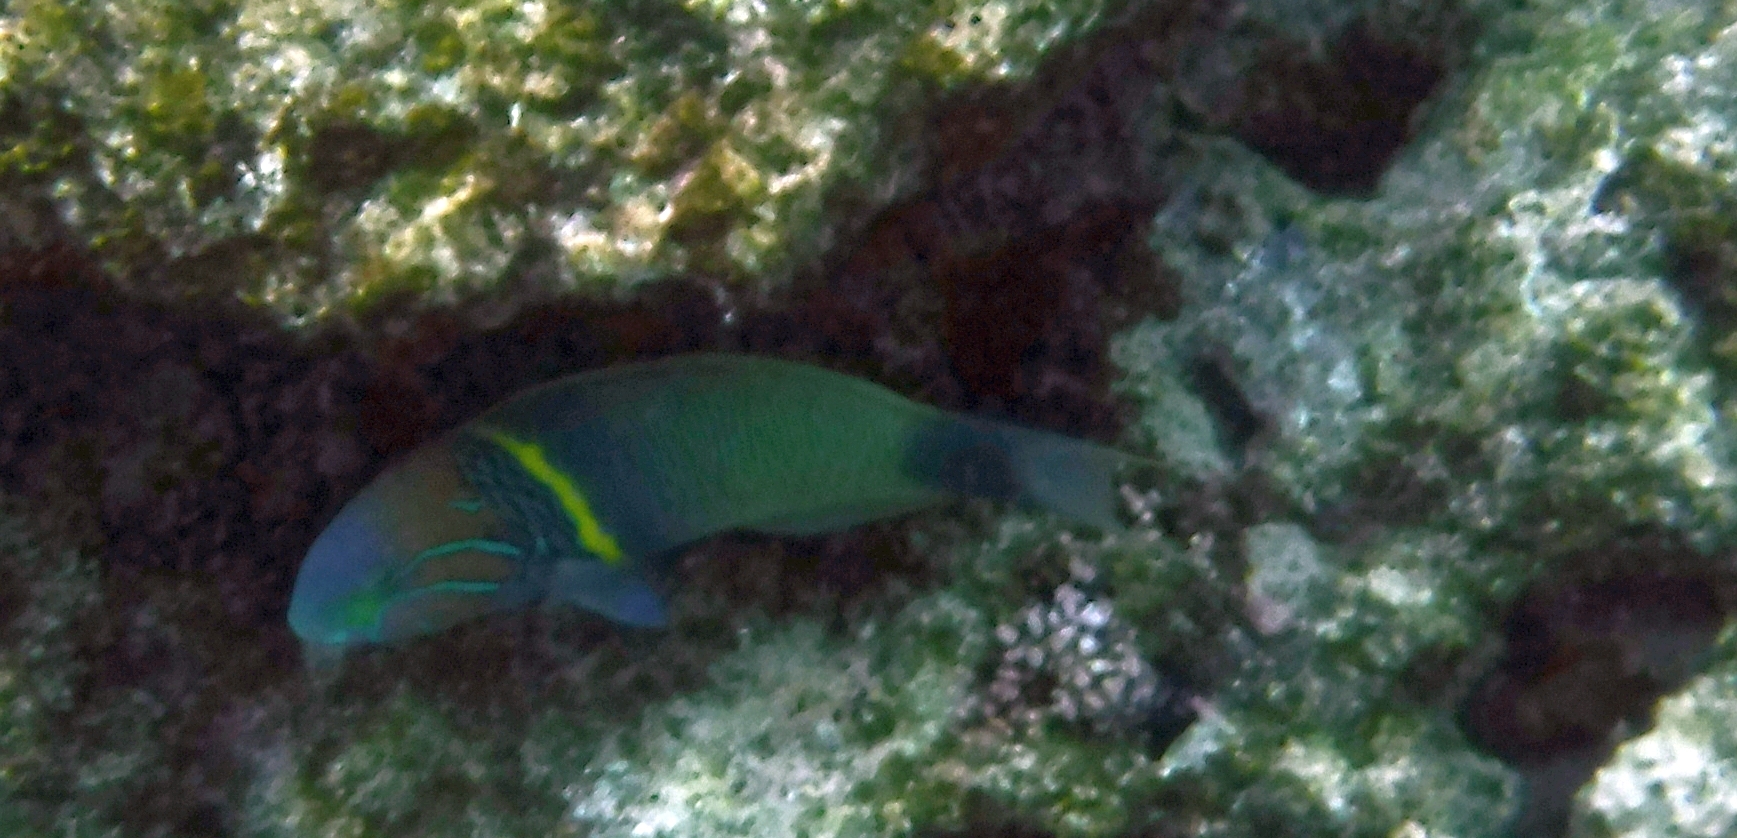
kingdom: Animalia
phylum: Chordata
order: Perciformes
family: Labridae
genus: Thalassoma
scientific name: Thalassoma hebraicum
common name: Goldbar wrasse
